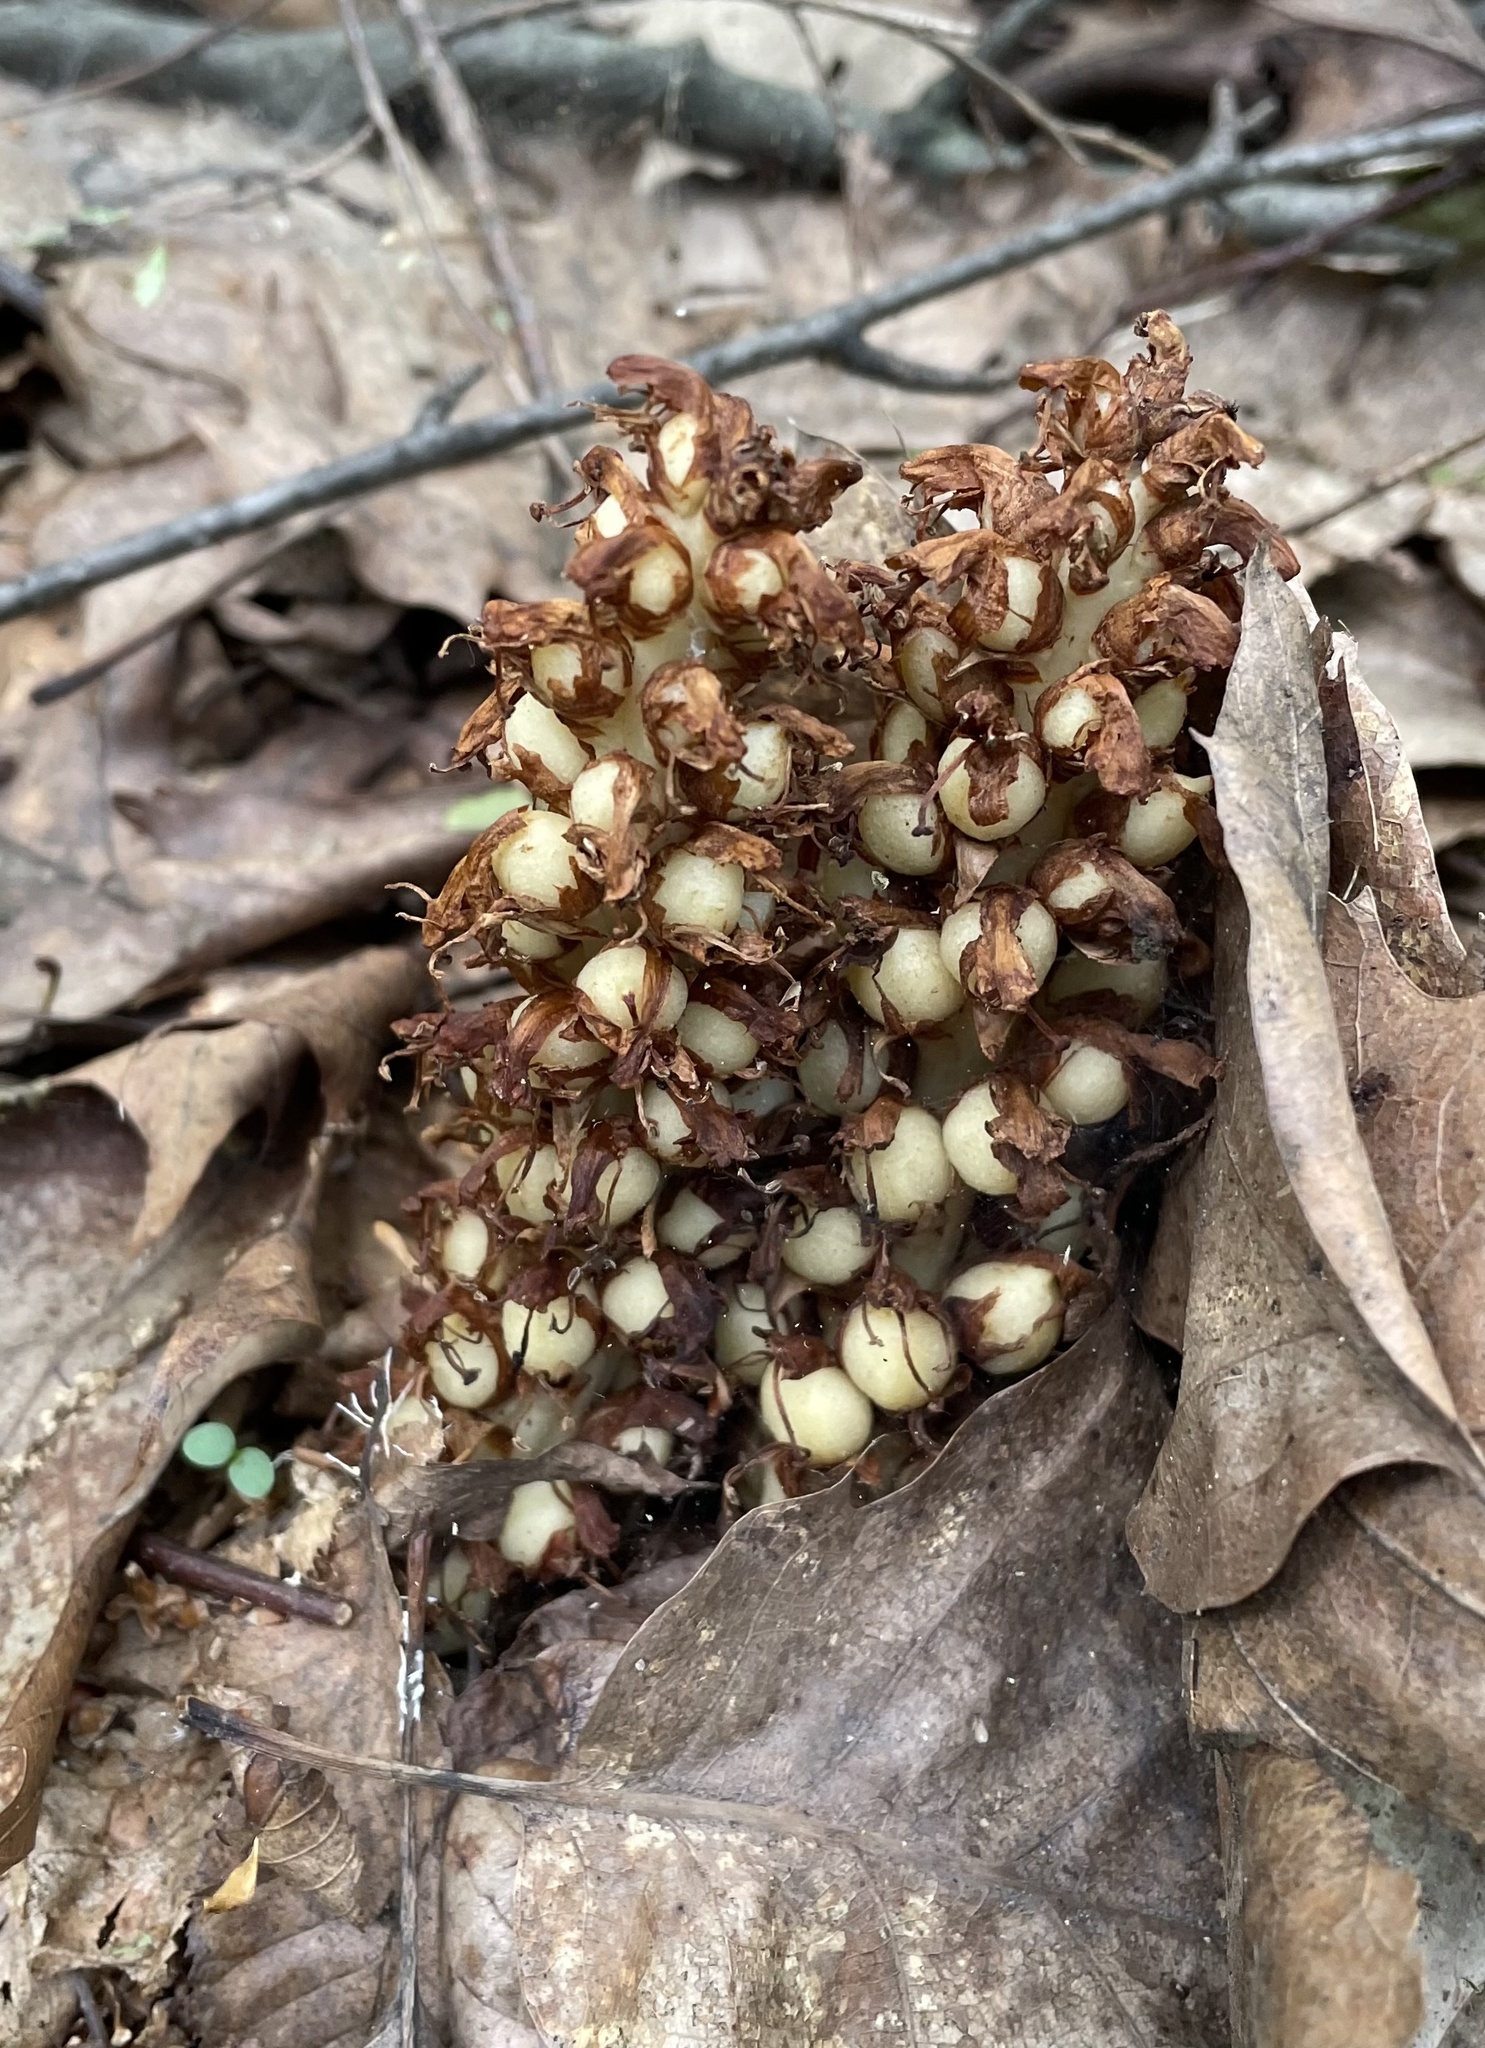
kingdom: Plantae
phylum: Tracheophyta
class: Magnoliopsida
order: Lamiales
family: Orobanchaceae
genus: Conopholis
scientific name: Conopholis americana
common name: American cancer-root
